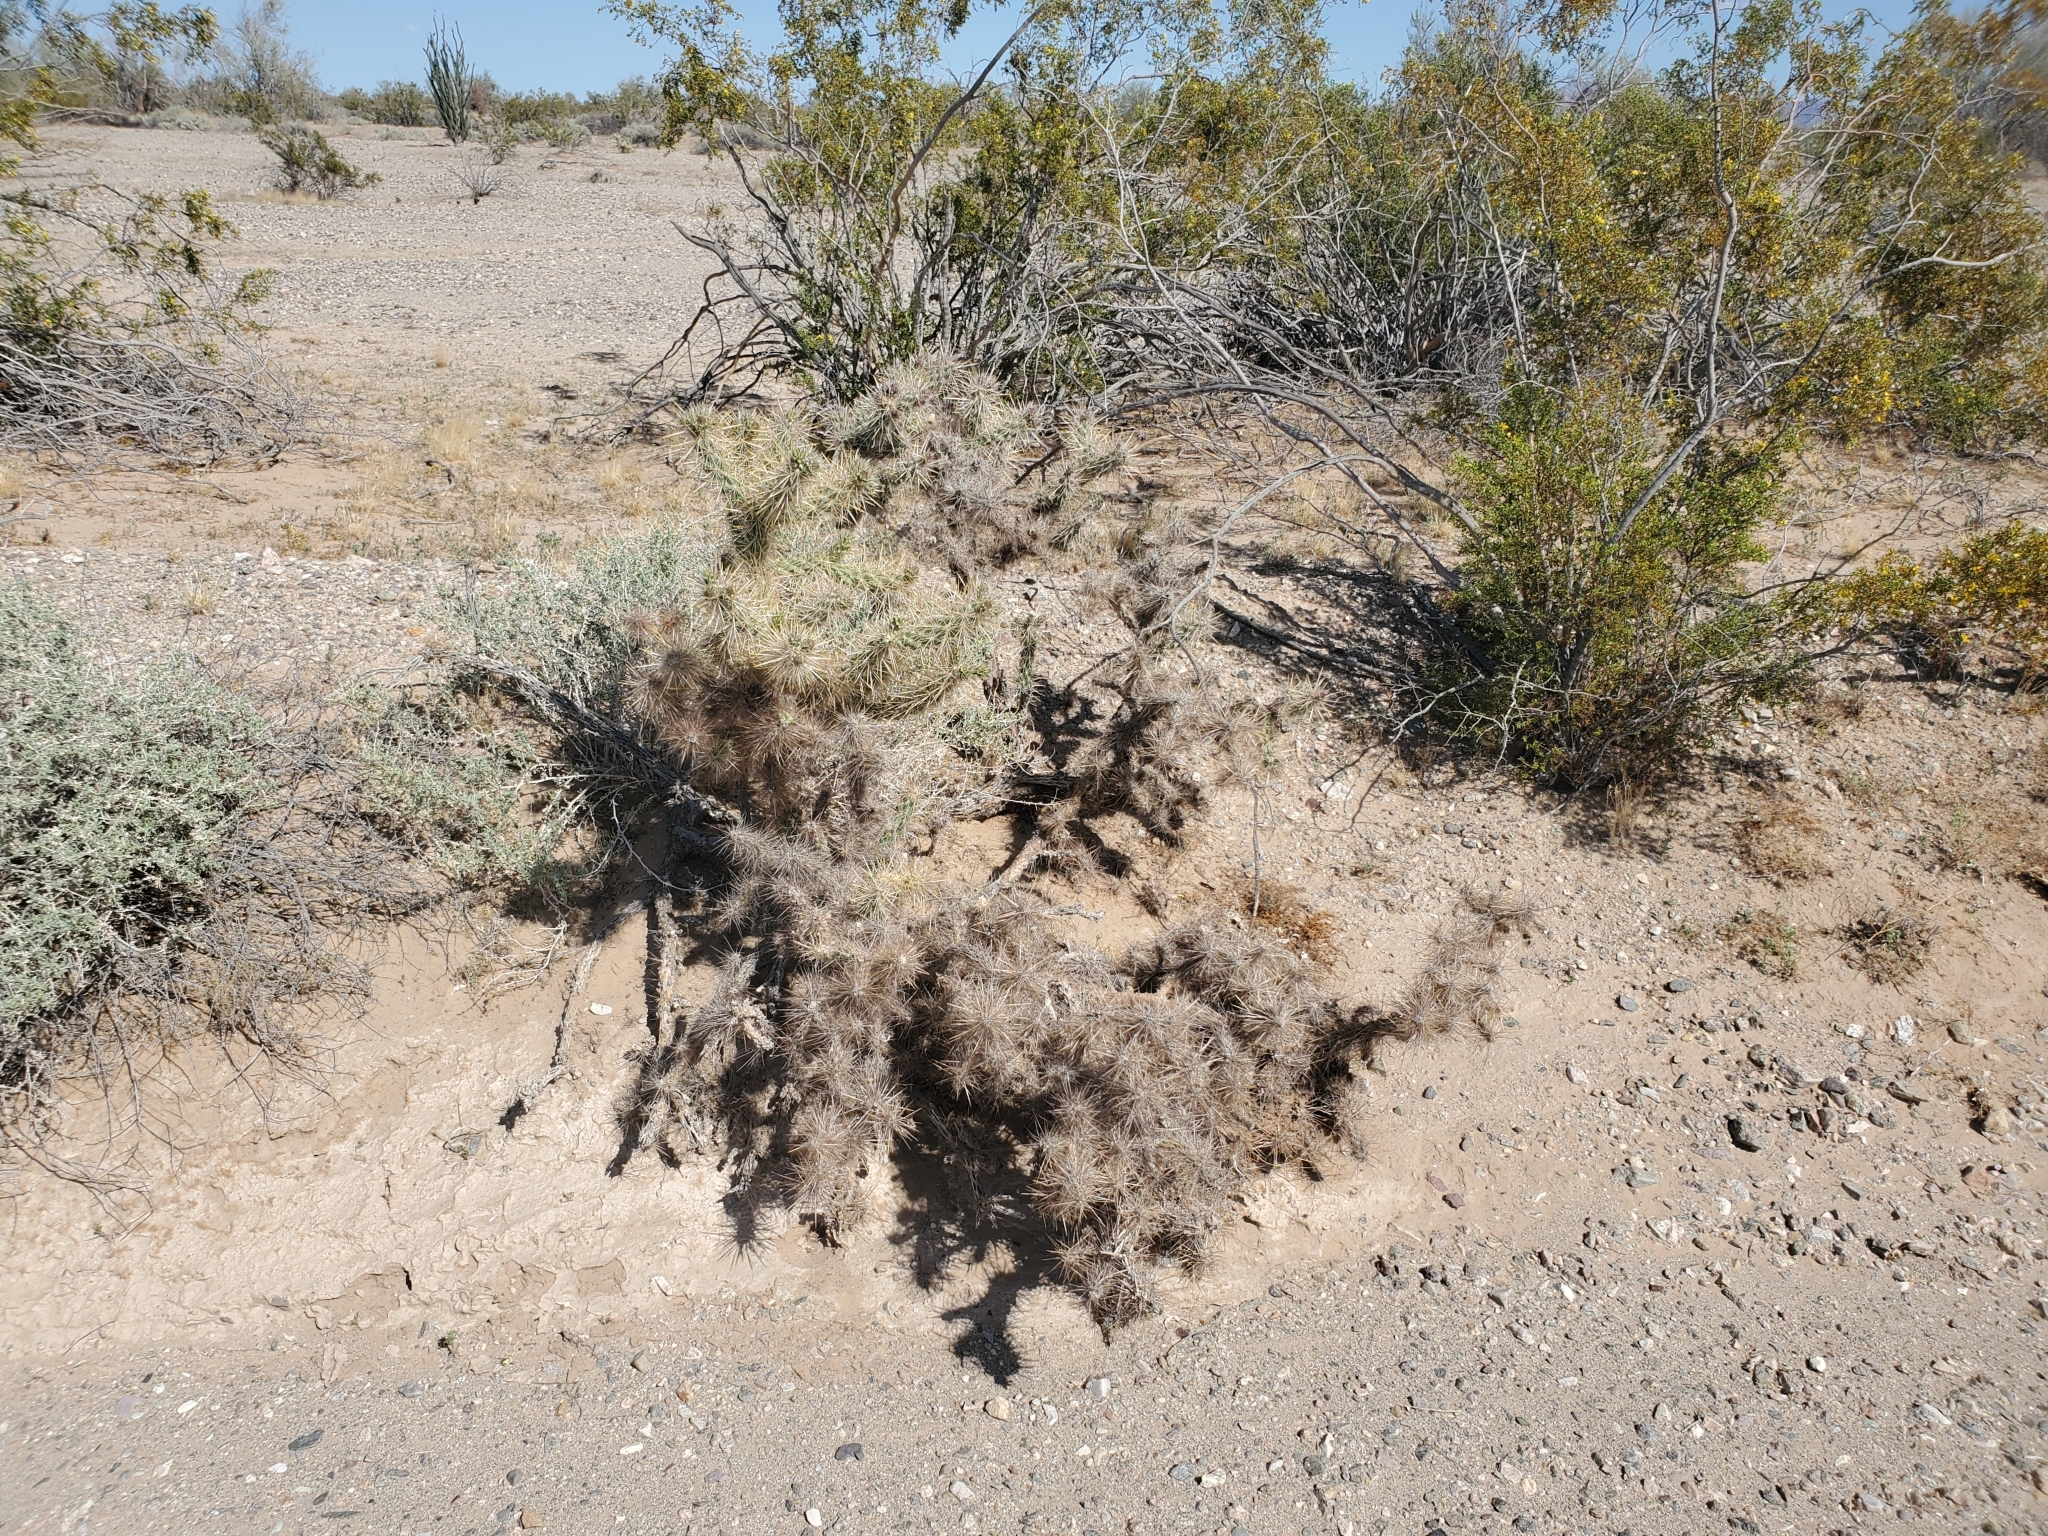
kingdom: Plantae
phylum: Tracheophyta
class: Magnoliopsida
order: Caryophyllales
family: Cactaceae
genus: Cylindropuntia
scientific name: Cylindropuntia echinocarpa
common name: Ground cholla
